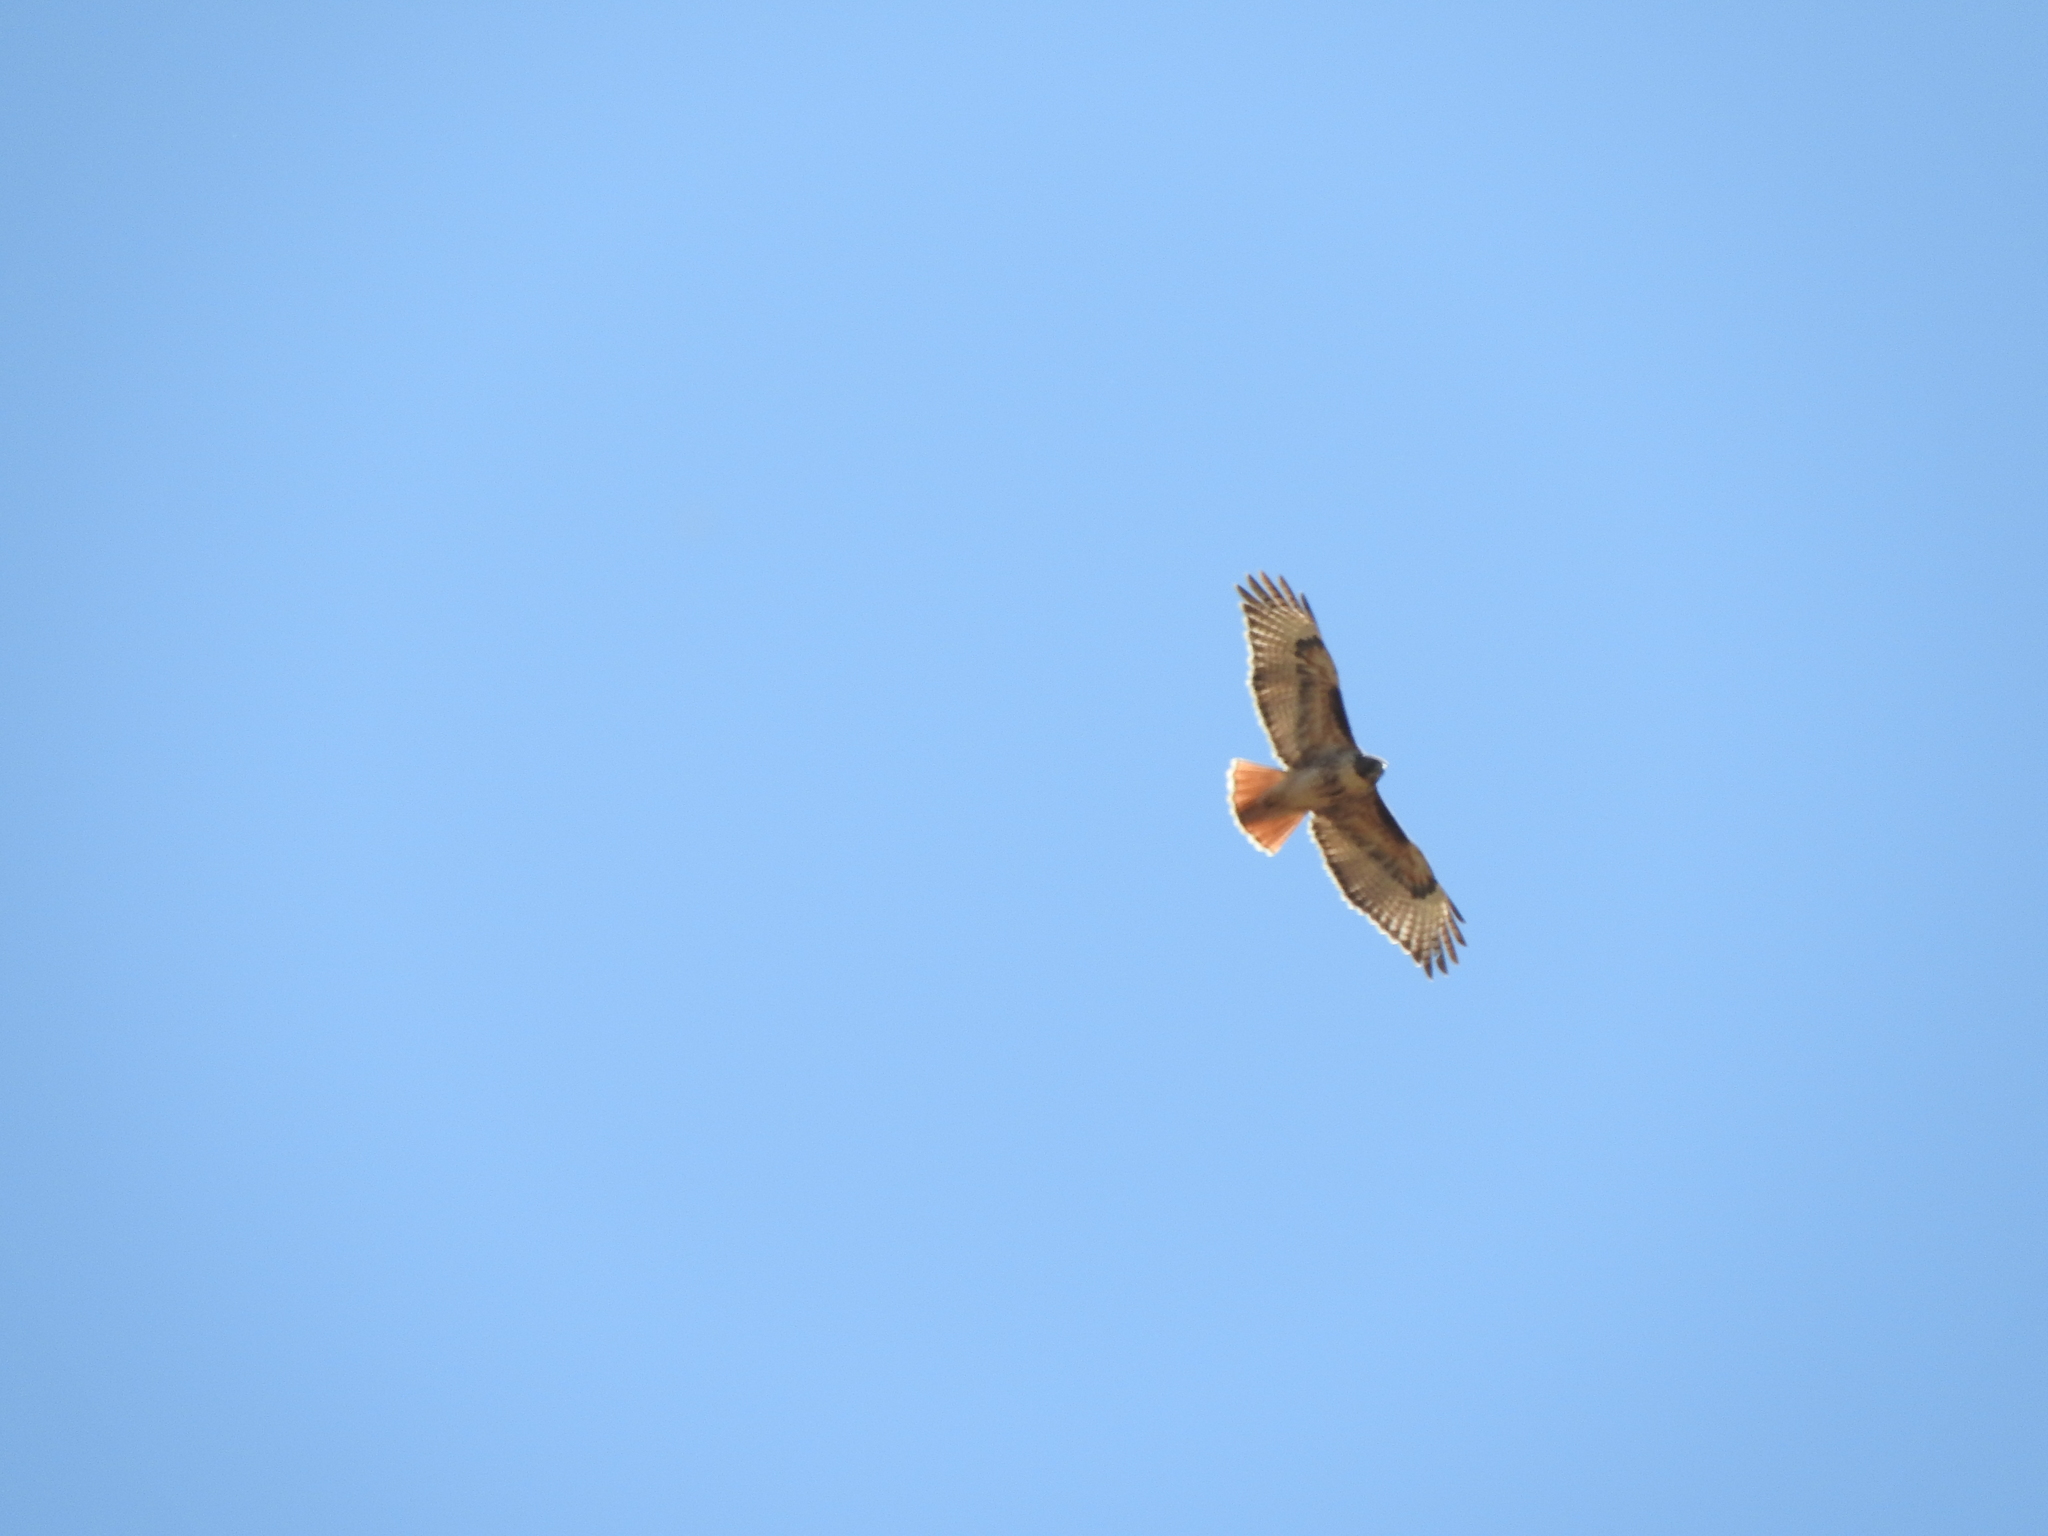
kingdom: Animalia
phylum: Chordata
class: Aves
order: Accipitriformes
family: Accipitridae
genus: Buteo
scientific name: Buteo jamaicensis
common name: Red-tailed hawk
